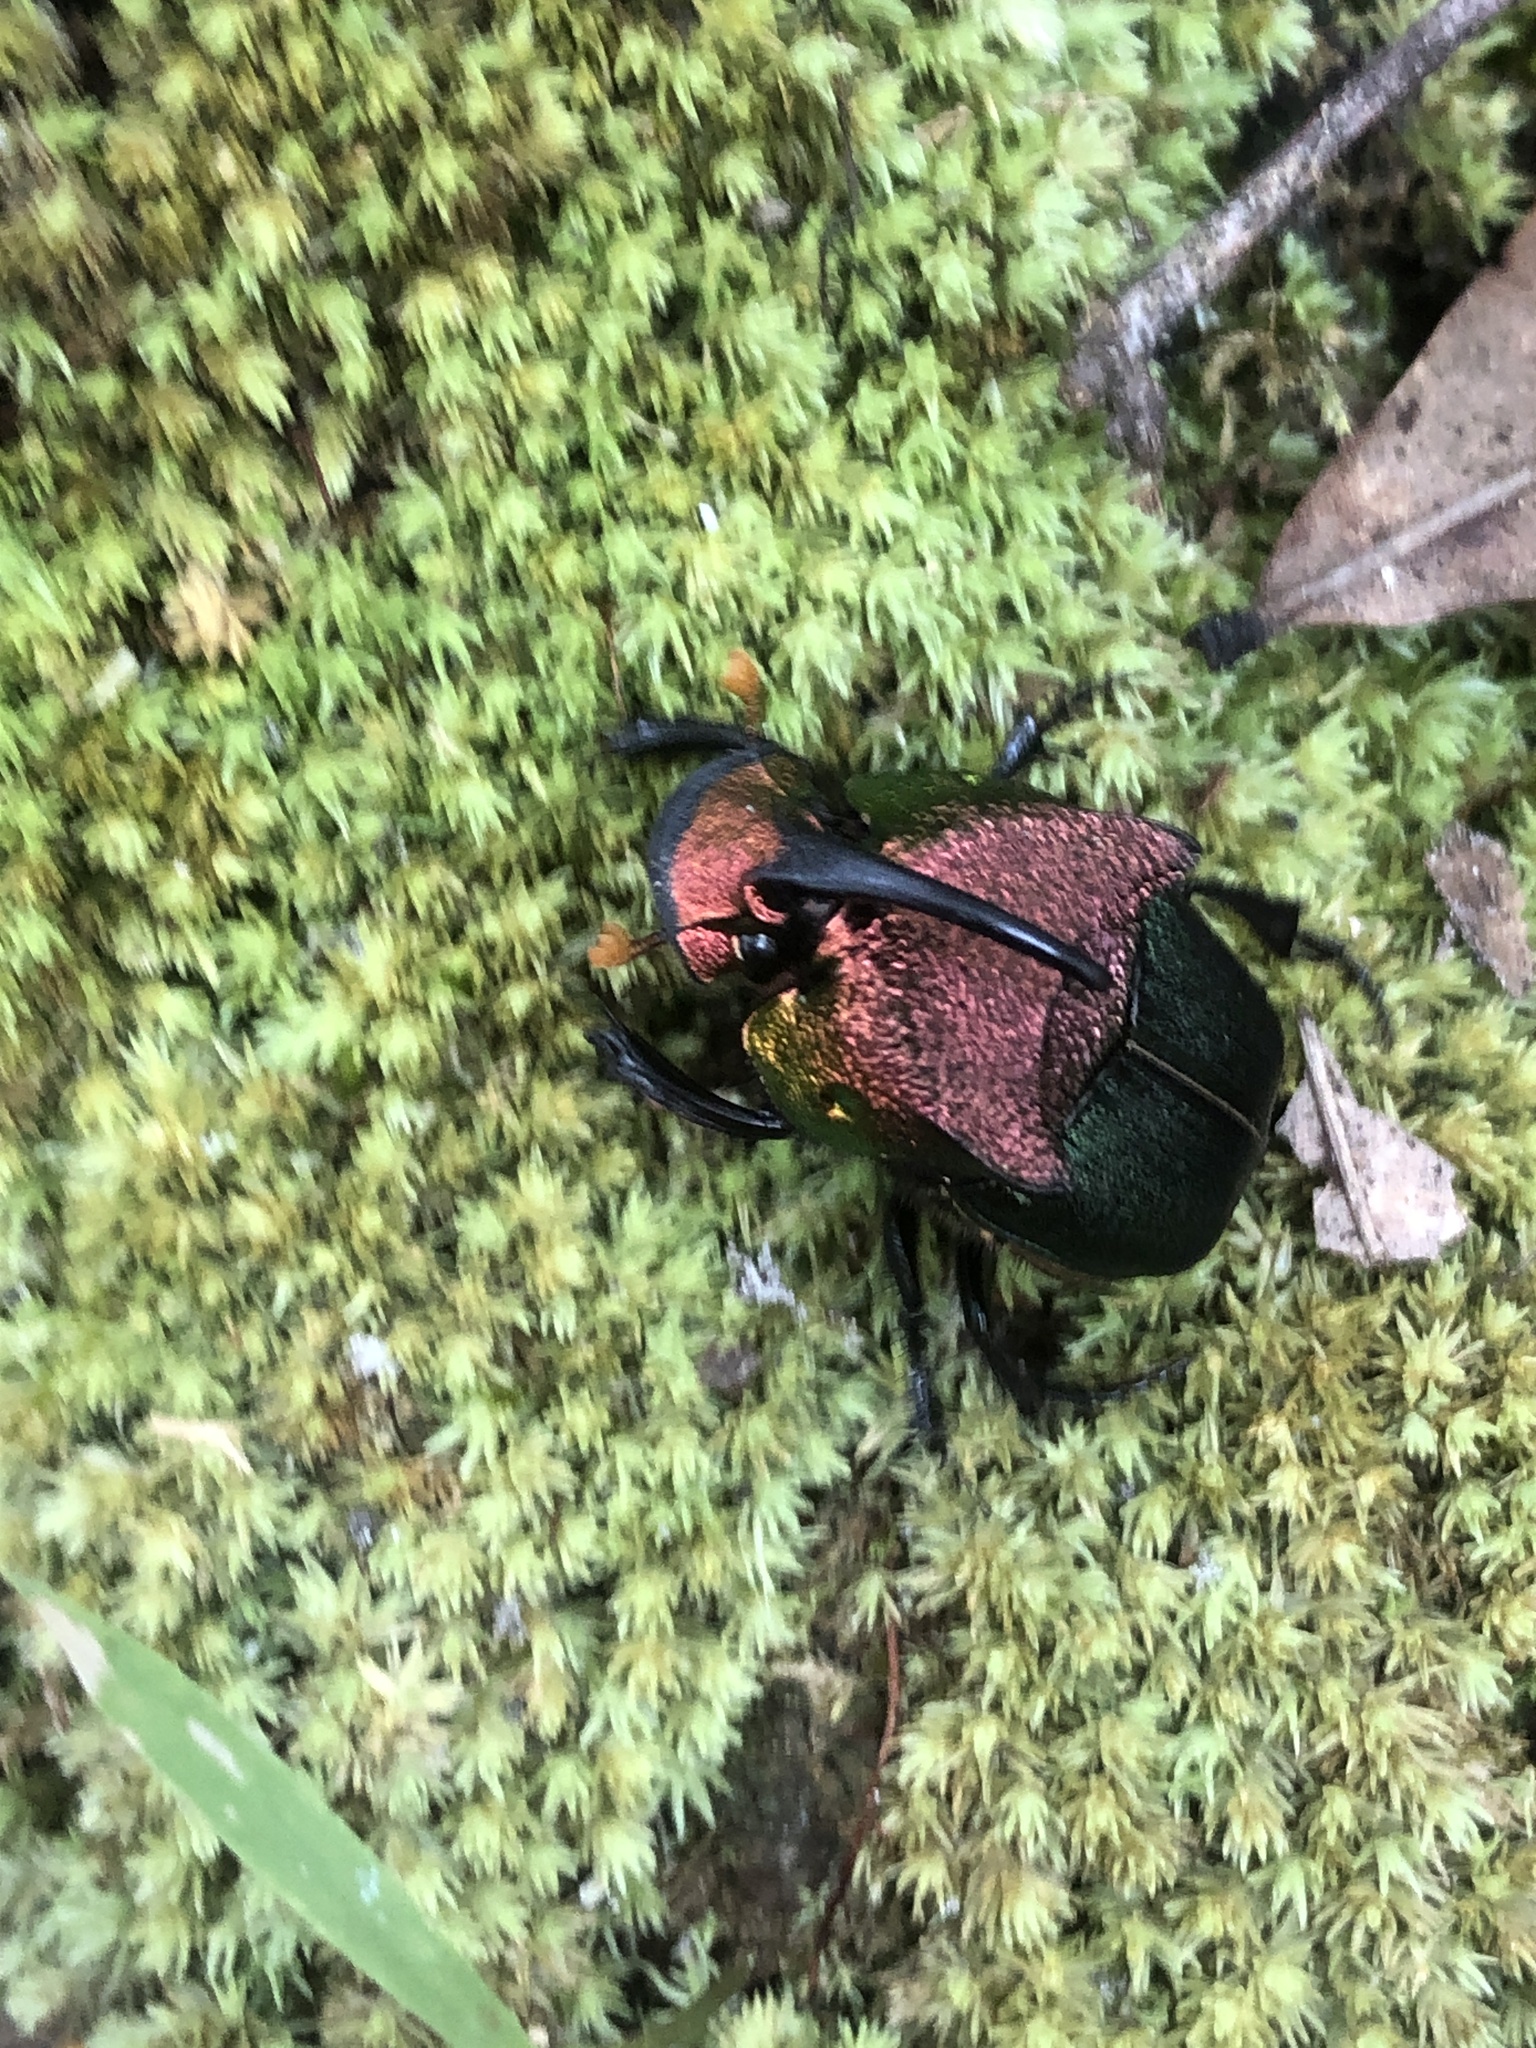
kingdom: Animalia
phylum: Arthropoda
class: Insecta
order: Coleoptera
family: Scarabaeidae
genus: Phanaeus
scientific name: Phanaeus vindex
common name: Rainbow scarab
